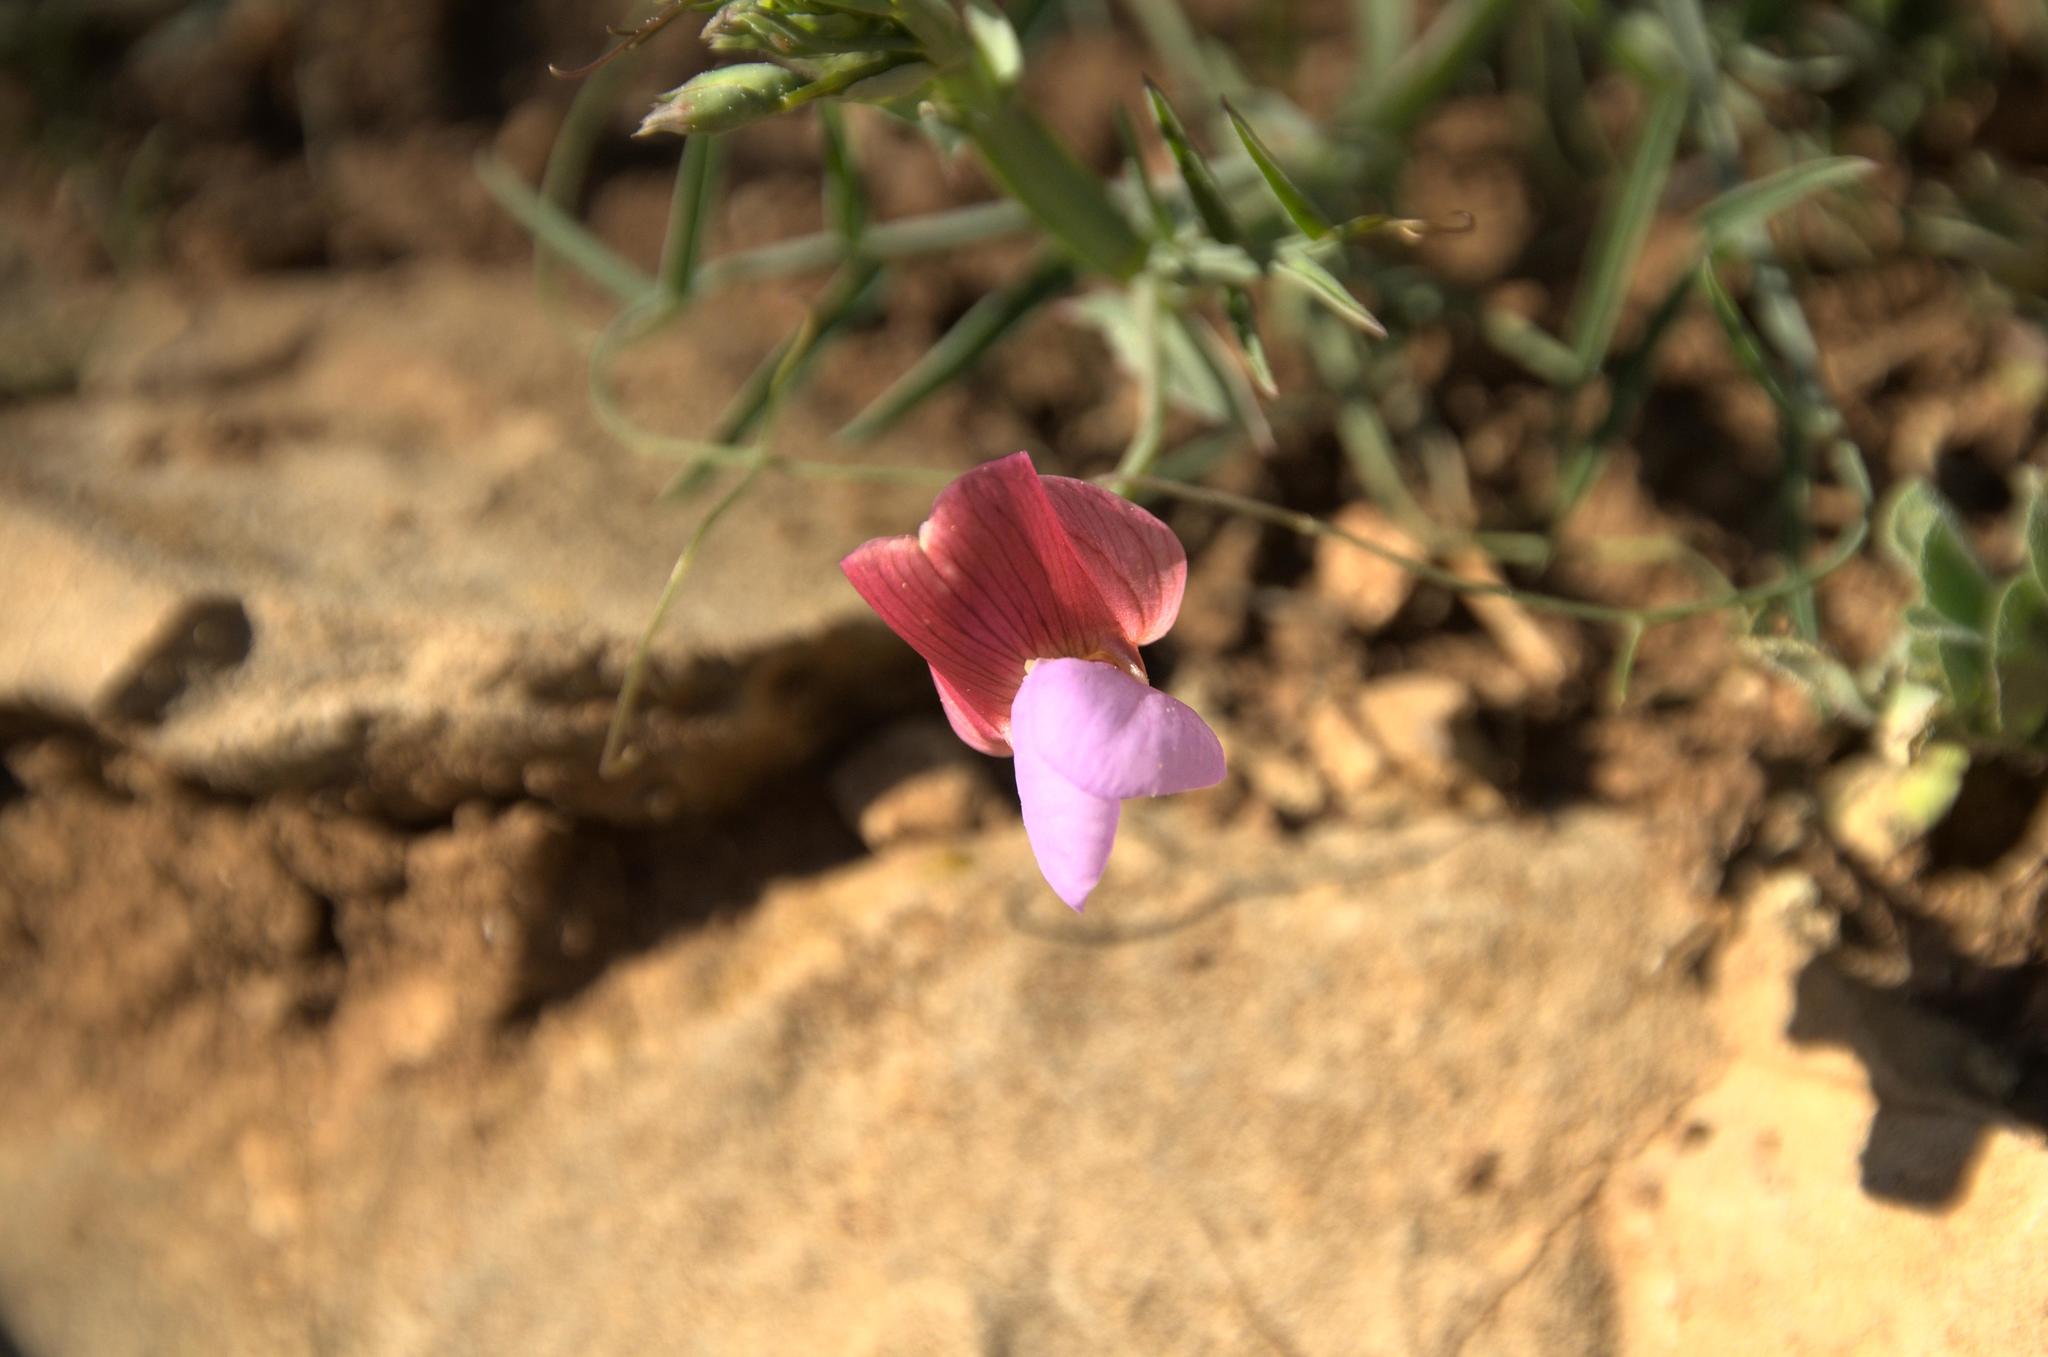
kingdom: Plantae
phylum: Tracheophyta
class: Magnoliopsida
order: Fabales
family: Fabaceae
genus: Lathyrus
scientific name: Lathyrus clymenum
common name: Spanish vetchling
